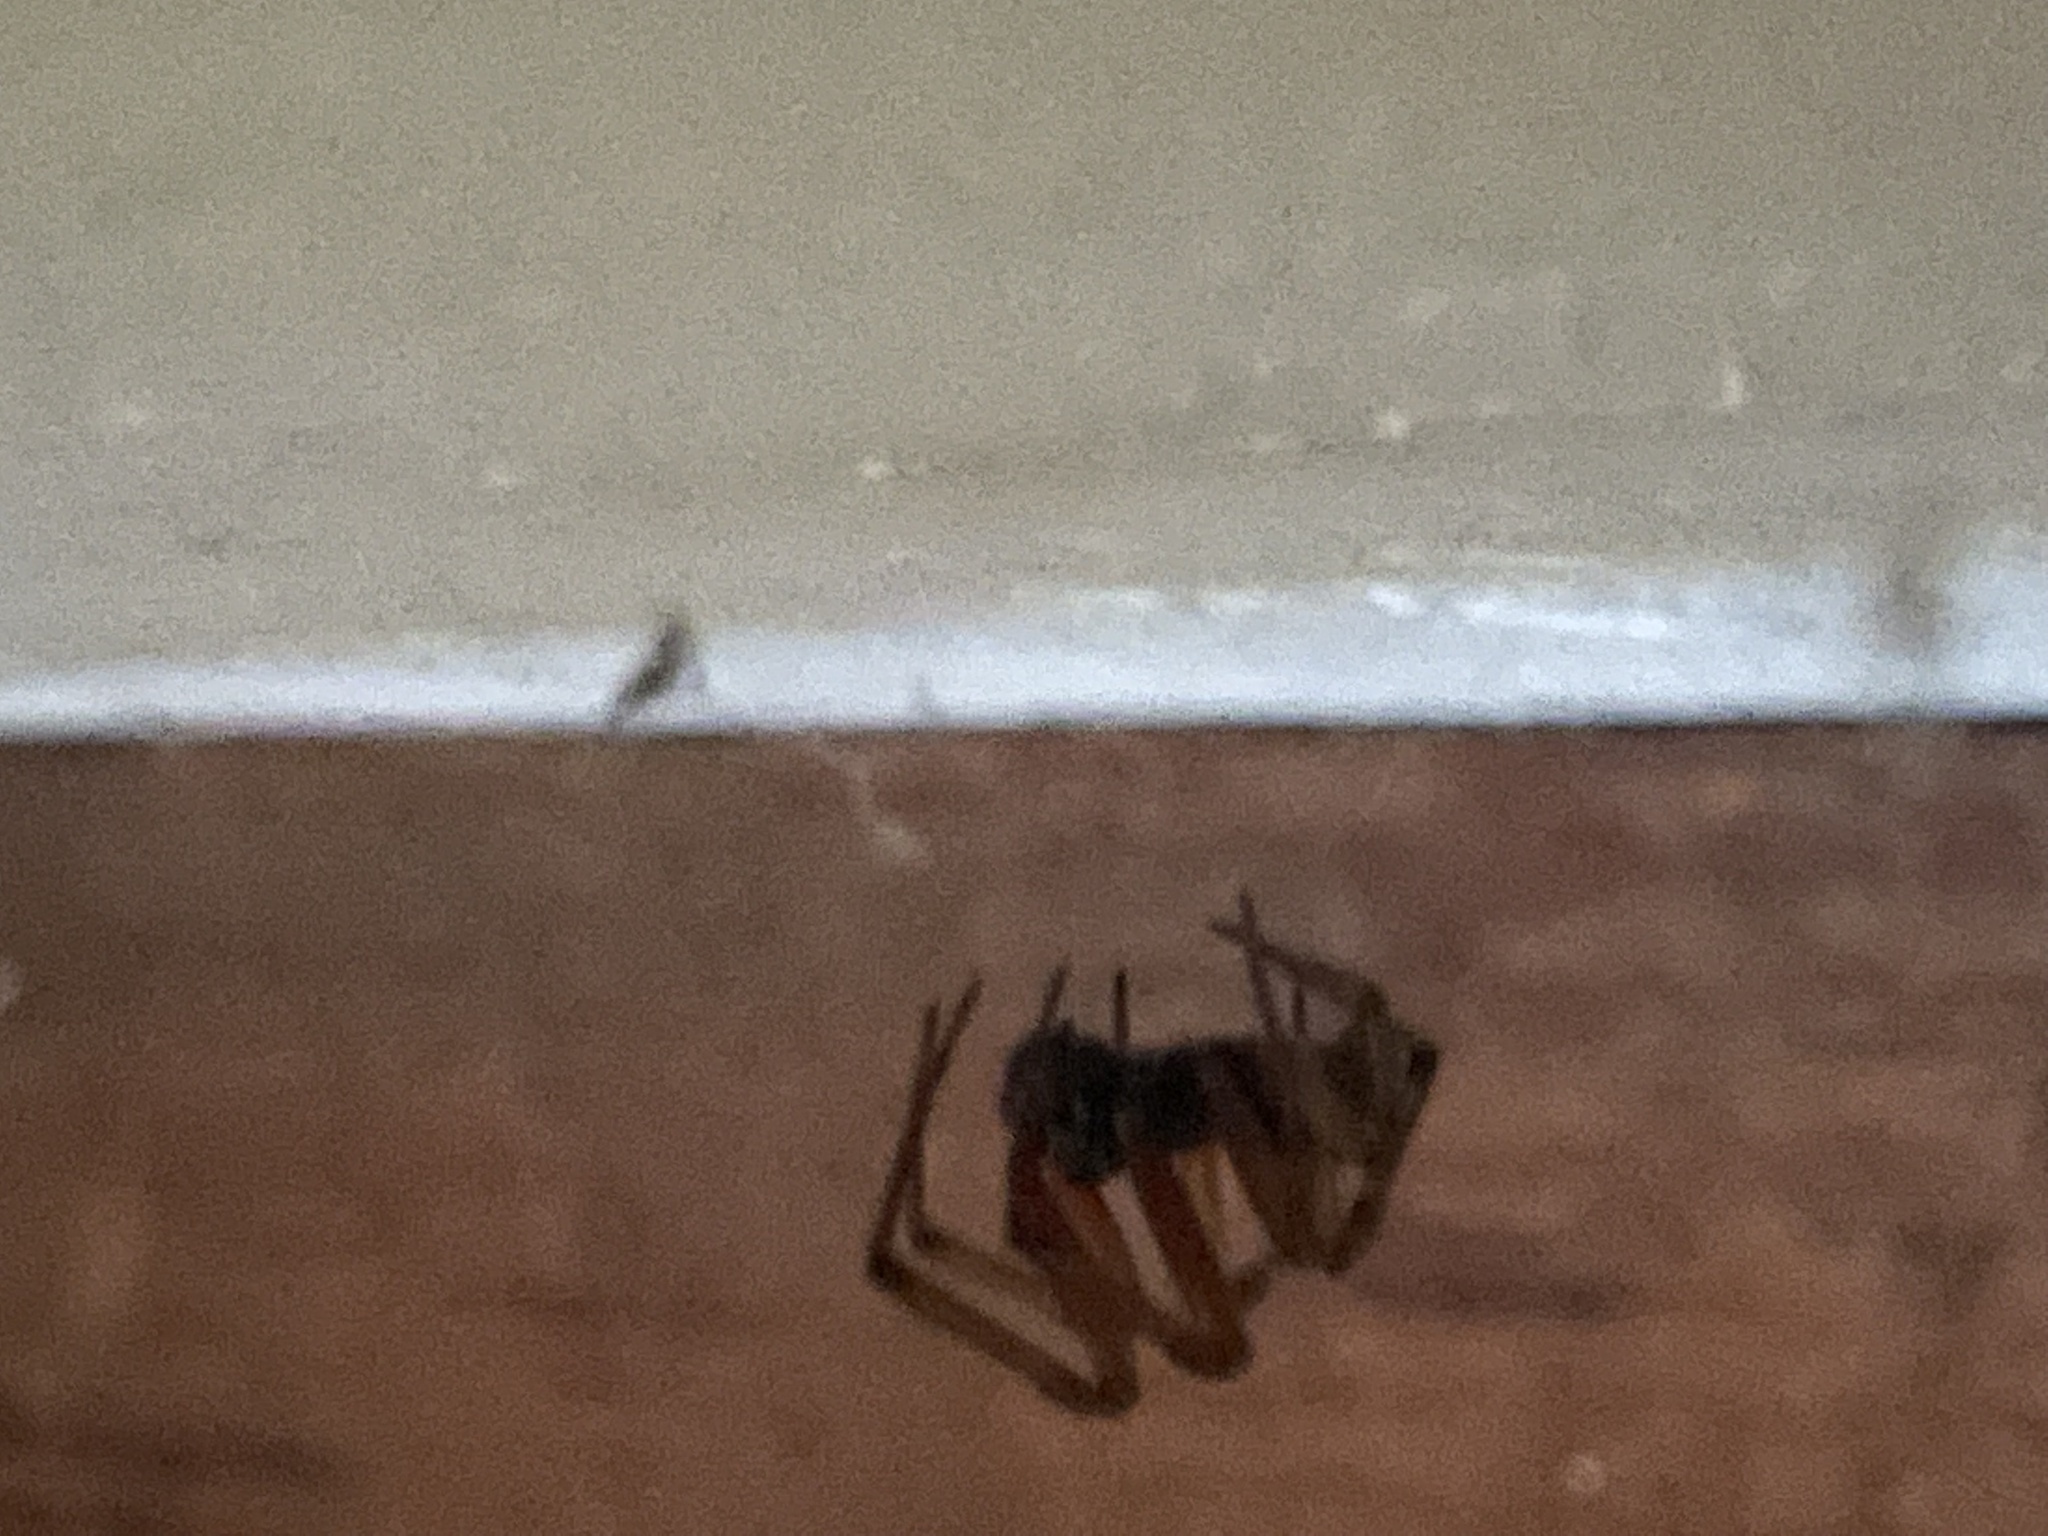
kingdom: Animalia
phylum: Arthropoda
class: Arachnida
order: Araneae
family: Theridiidae
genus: Steatoda
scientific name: Steatoda nobilis
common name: Cobweb weaver
